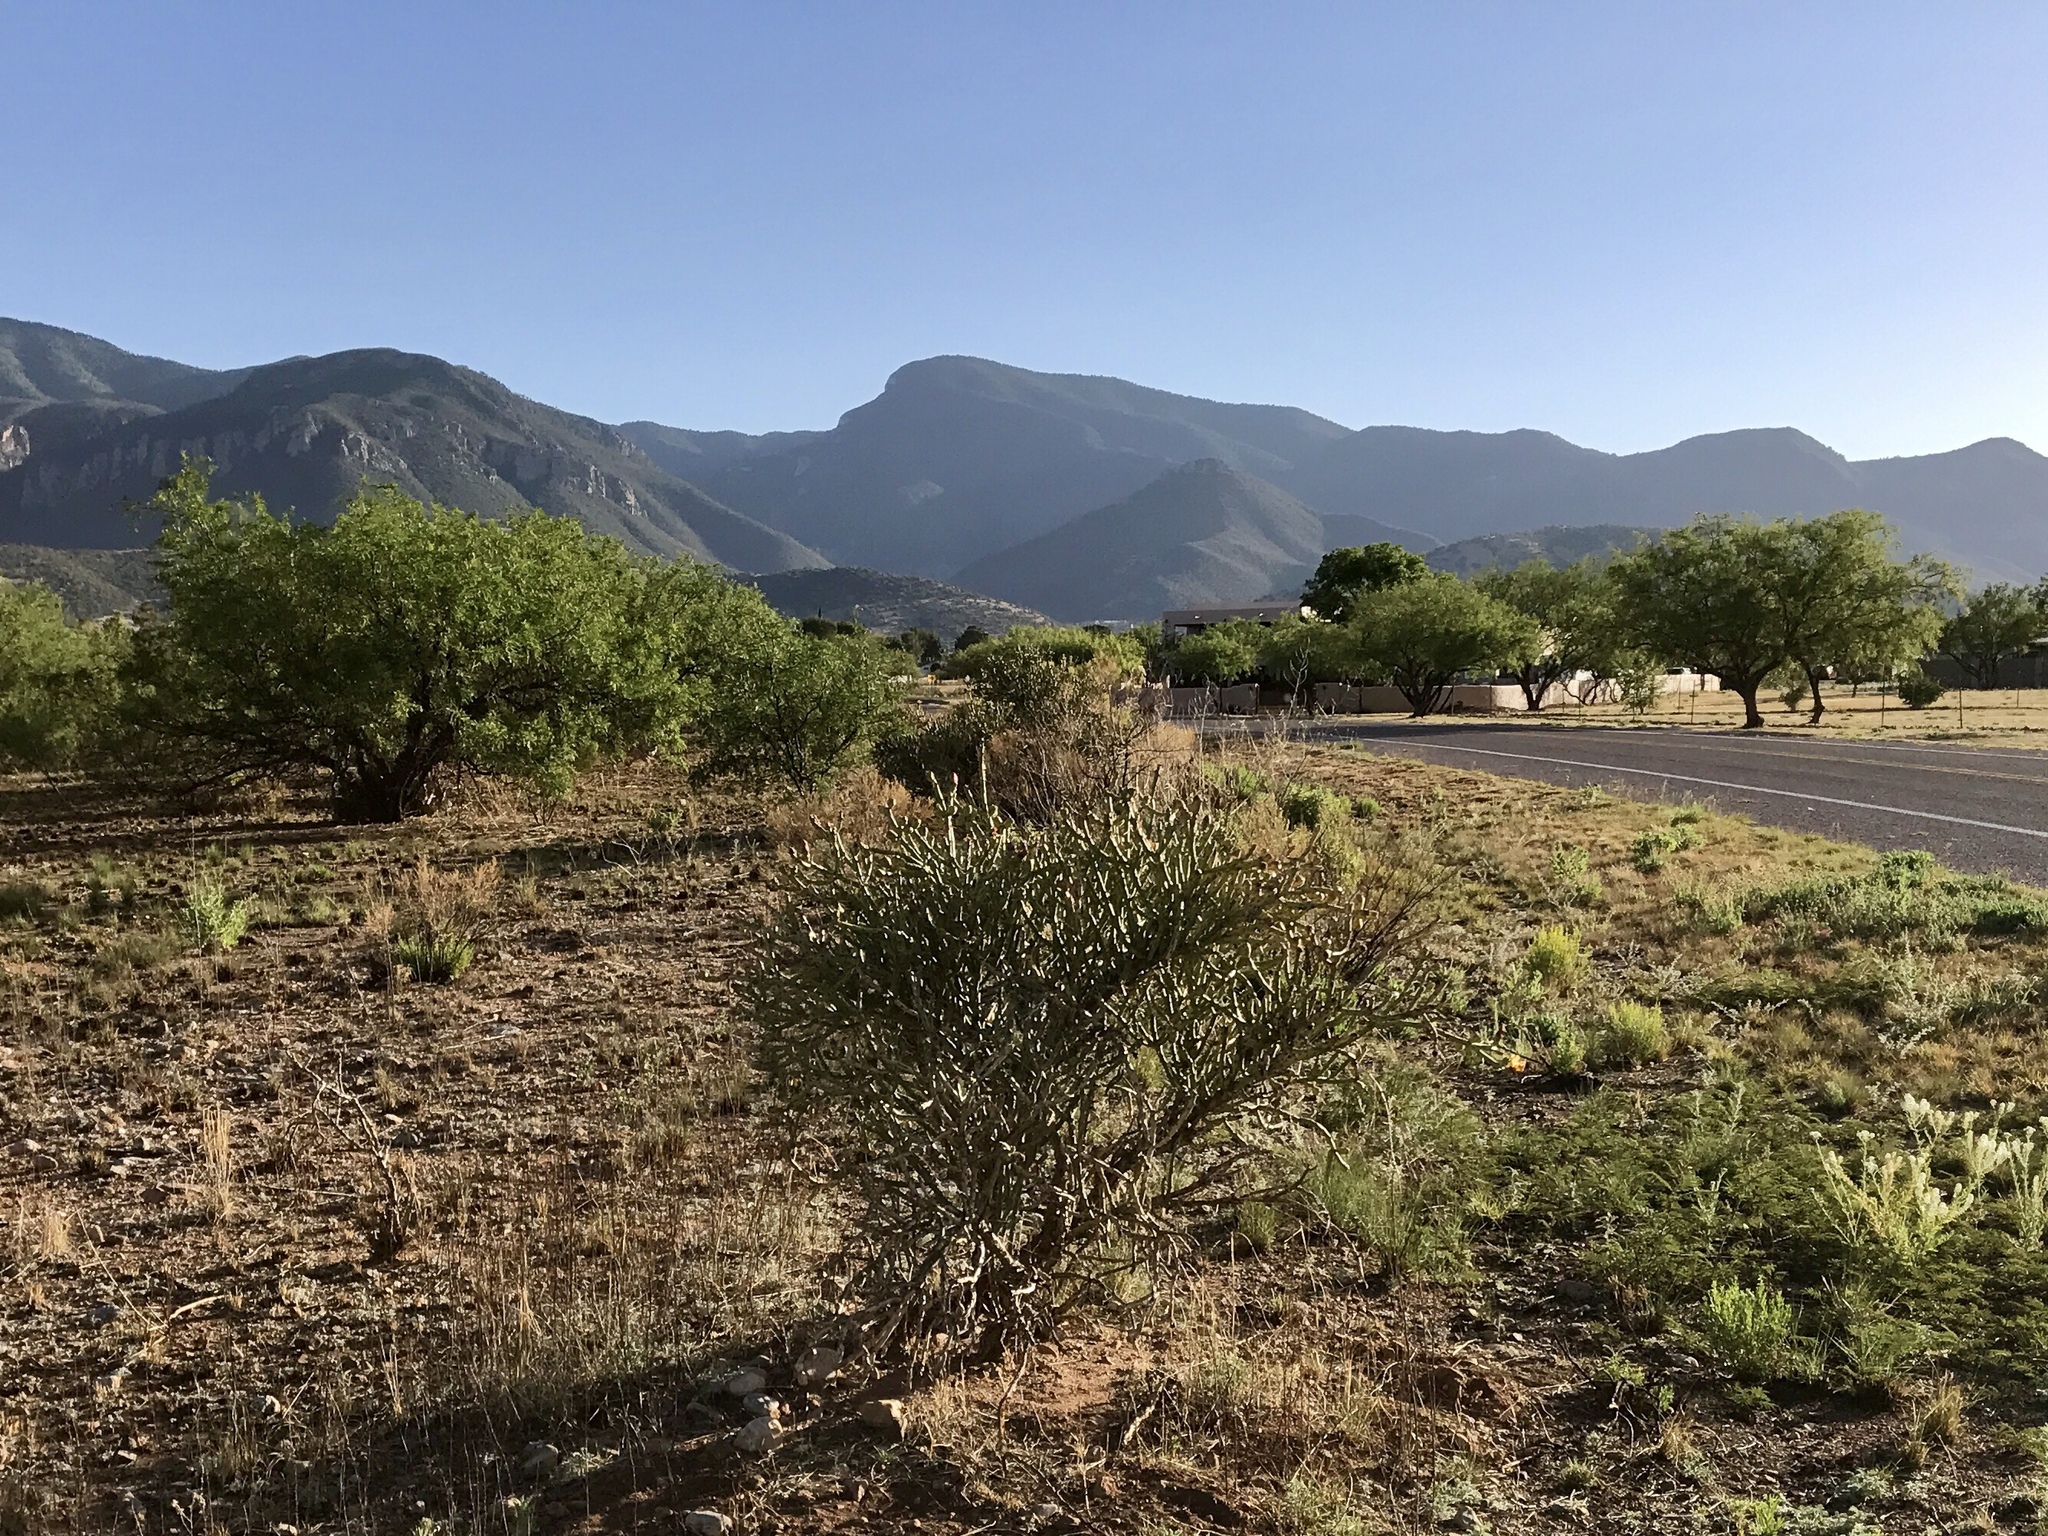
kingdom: Plantae
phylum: Tracheophyta
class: Magnoliopsida
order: Caryophyllales
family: Cactaceae
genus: Cylindropuntia
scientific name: Cylindropuntia arbuscula
